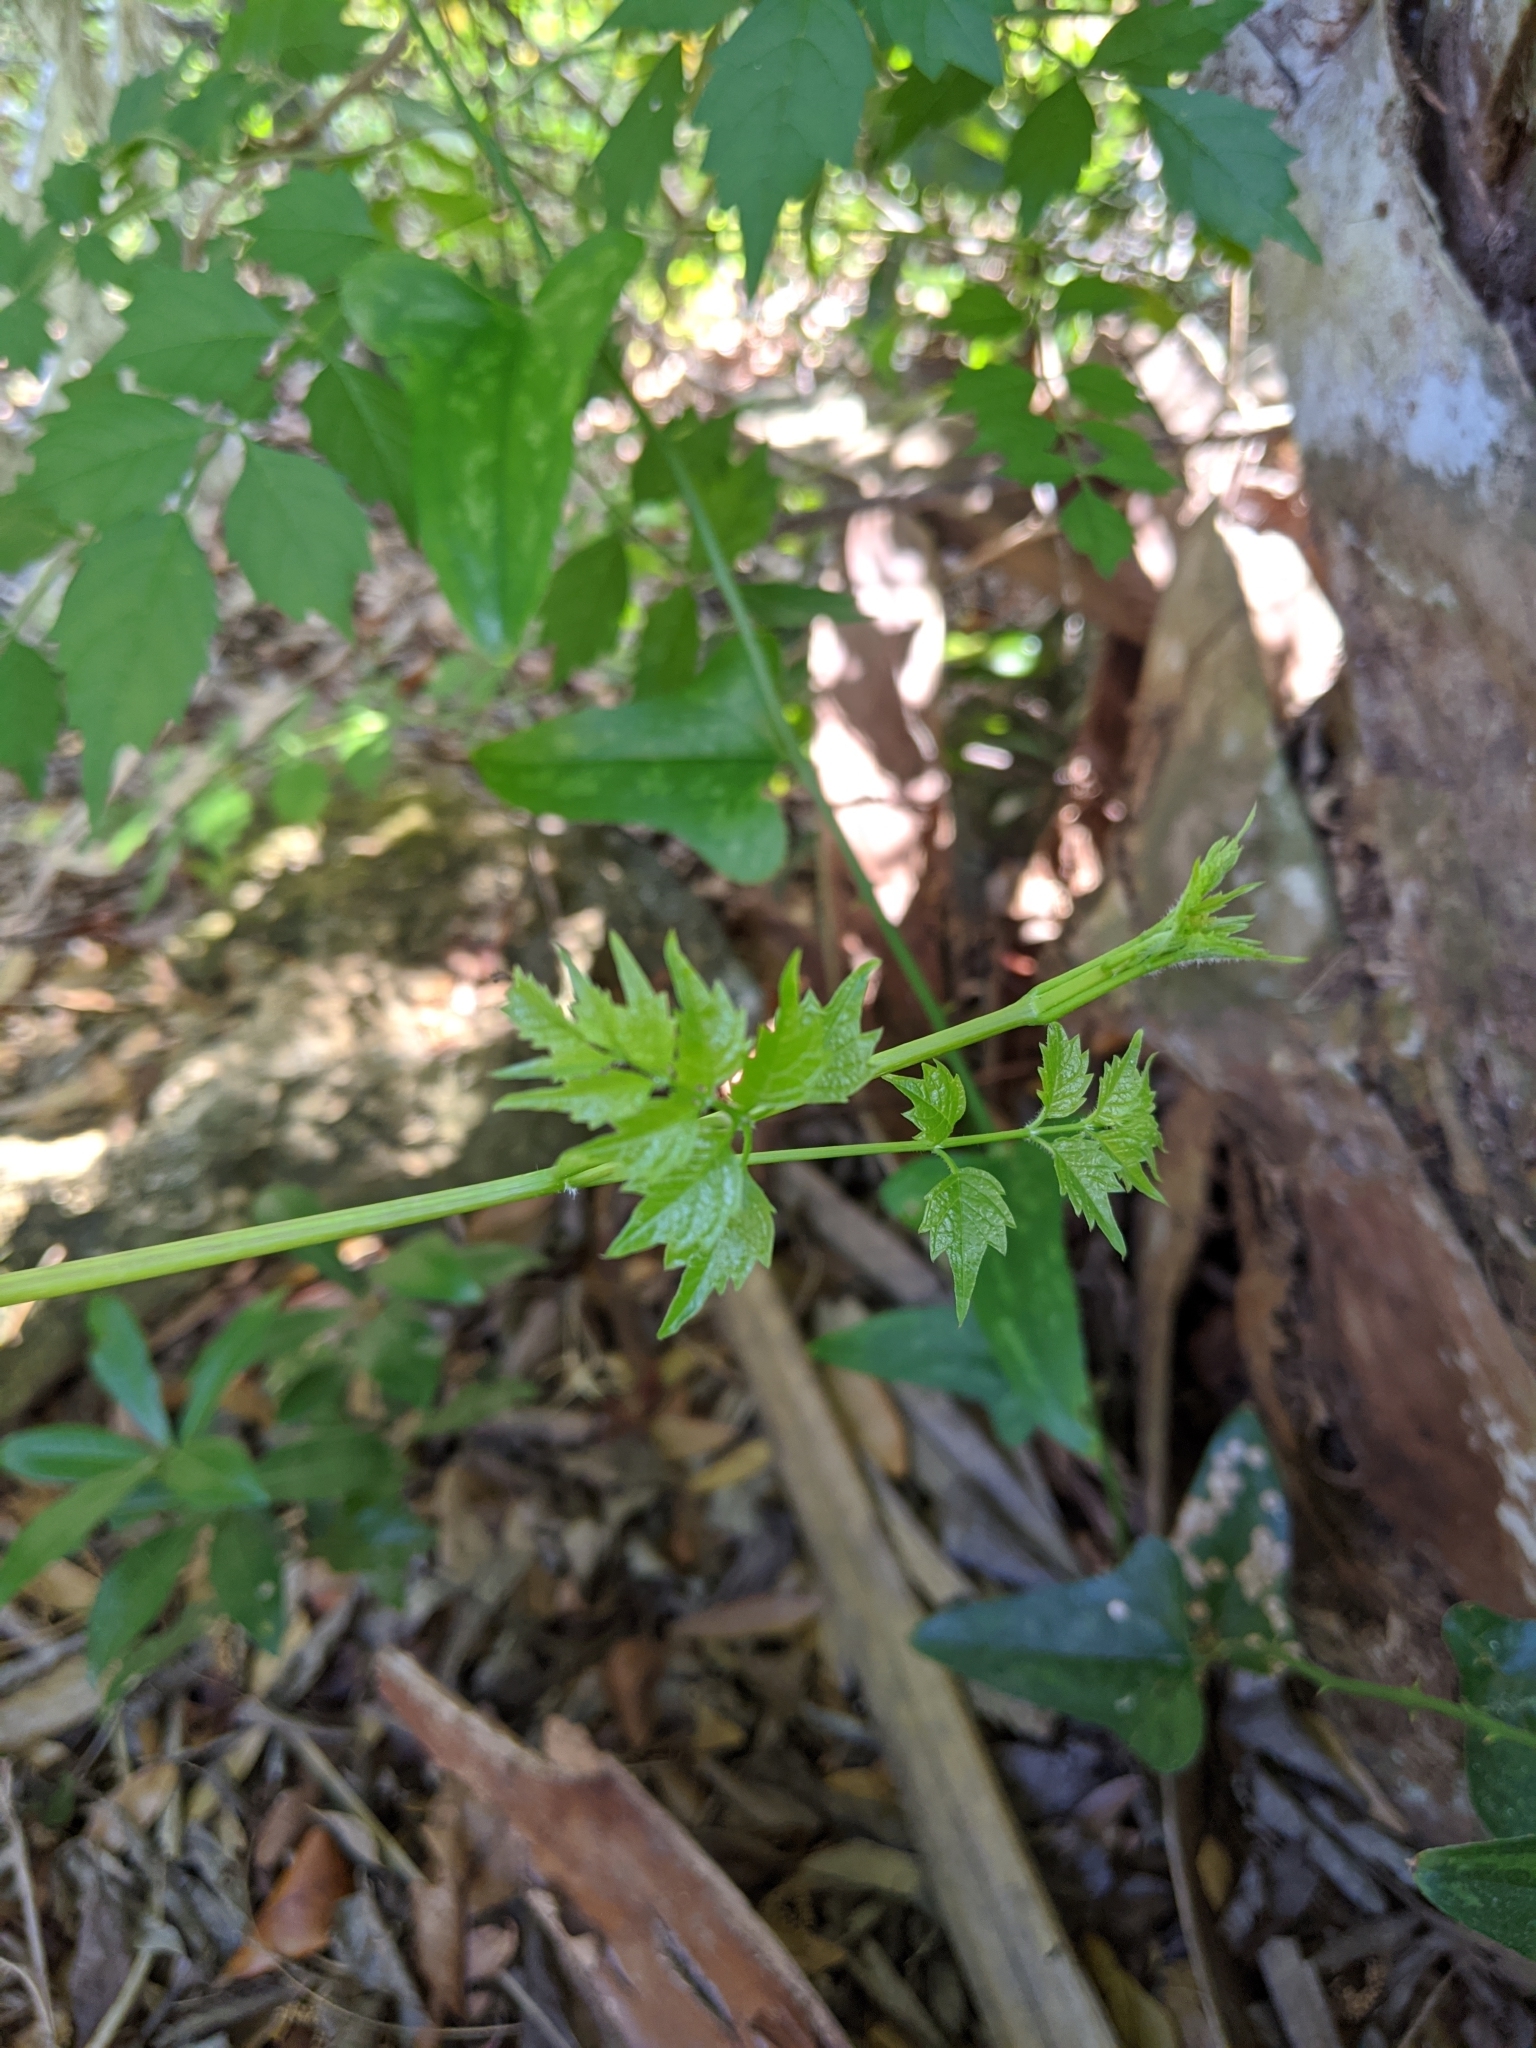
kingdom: Plantae
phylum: Tracheophyta
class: Magnoliopsida
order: Lamiales
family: Bignoniaceae
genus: Campsis
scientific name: Campsis radicans
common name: Trumpet-creeper
